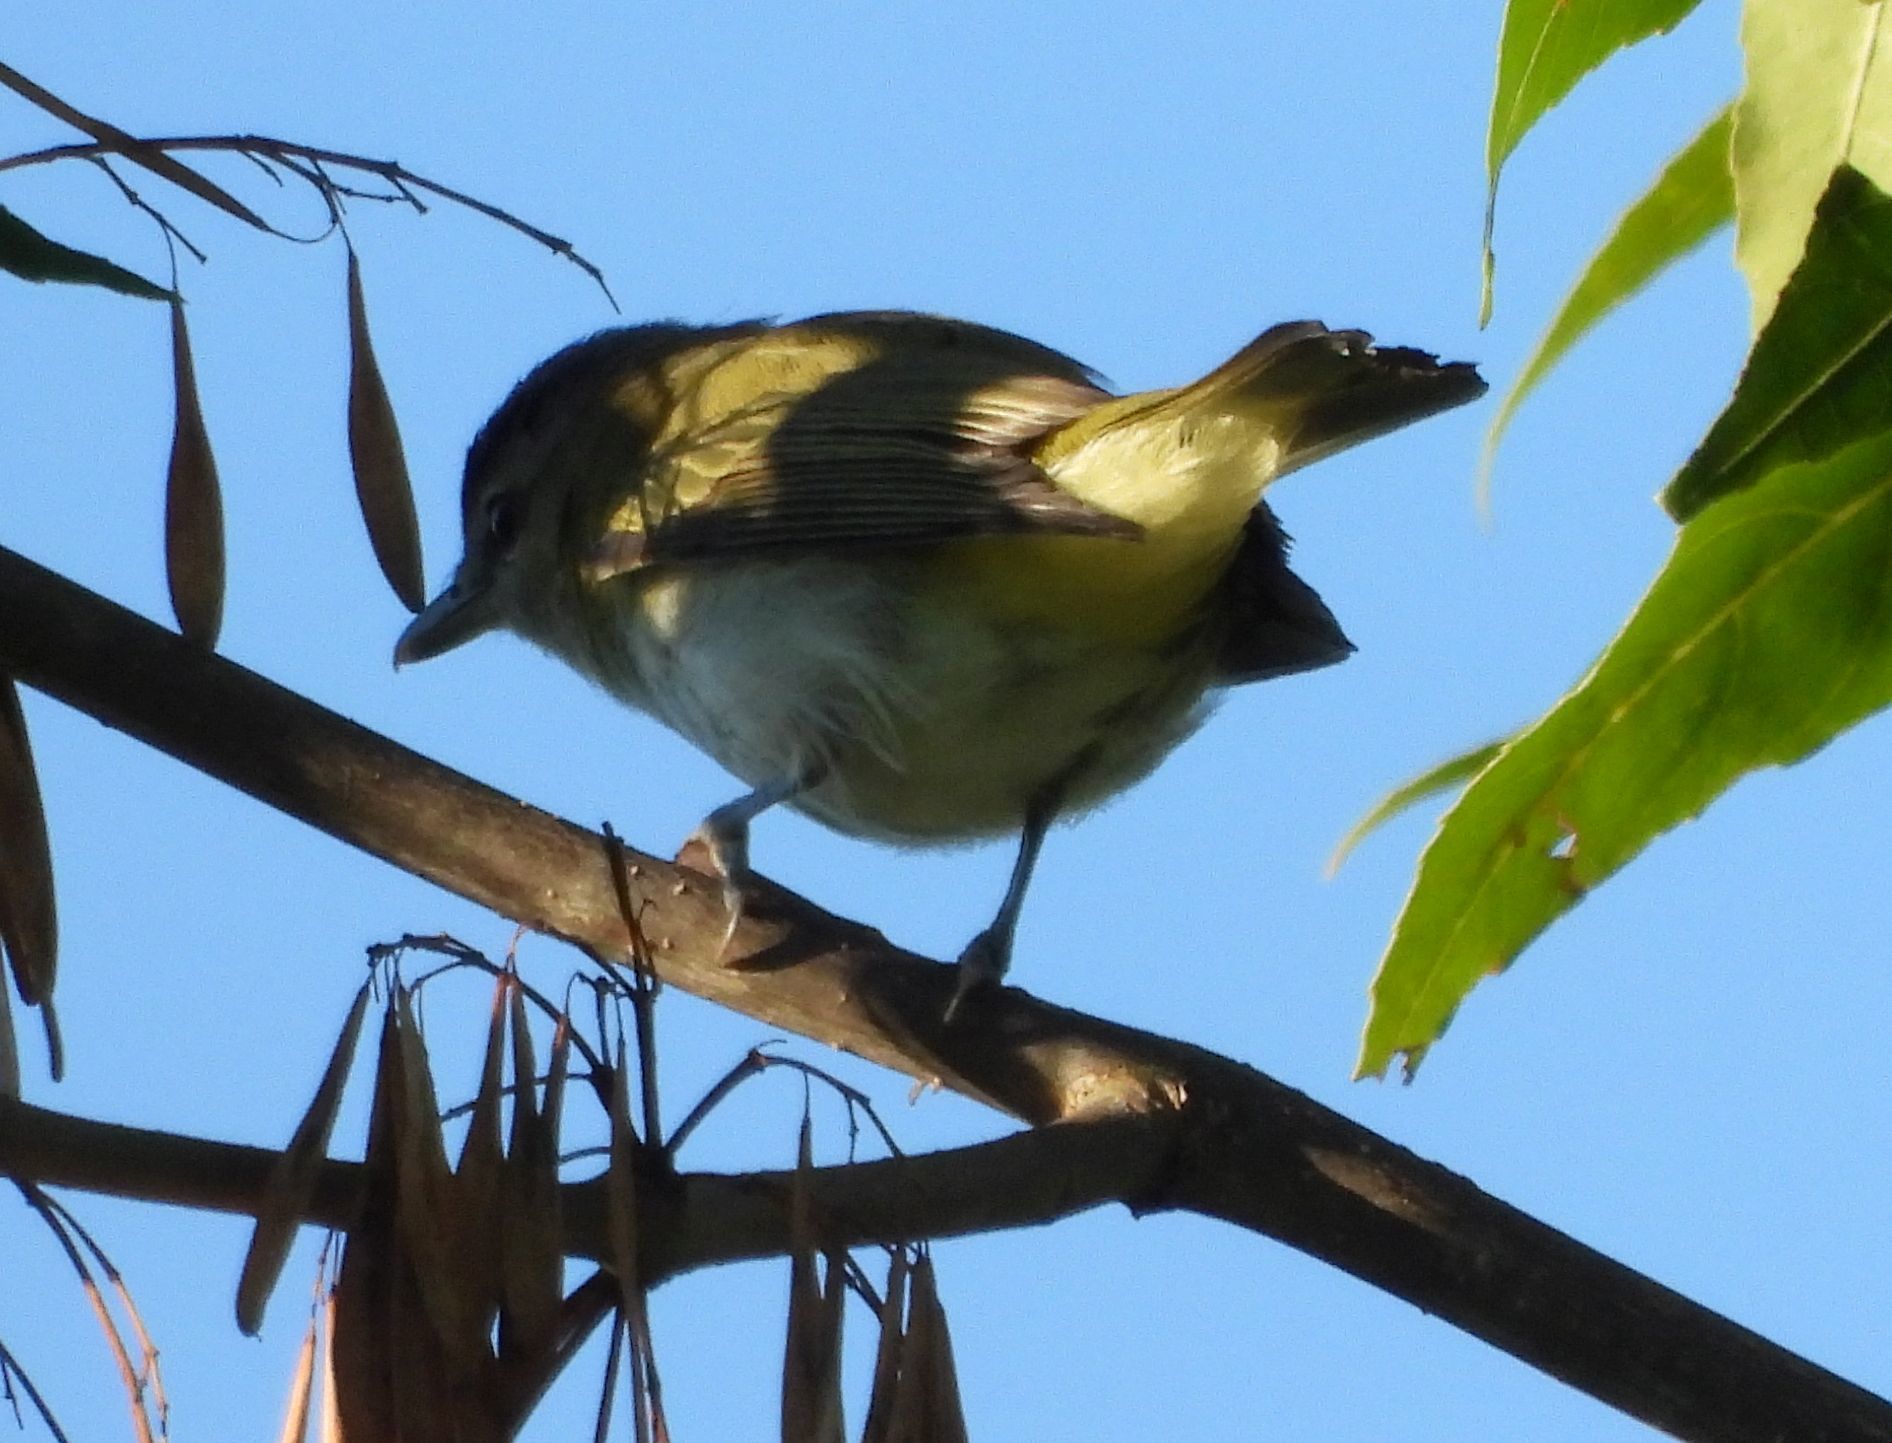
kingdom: Animalia
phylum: Chordata
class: Aves
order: Passeriformes
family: Vireonidae
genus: Vireo
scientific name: Vireo olivaceus
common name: Red-eyed vireo
